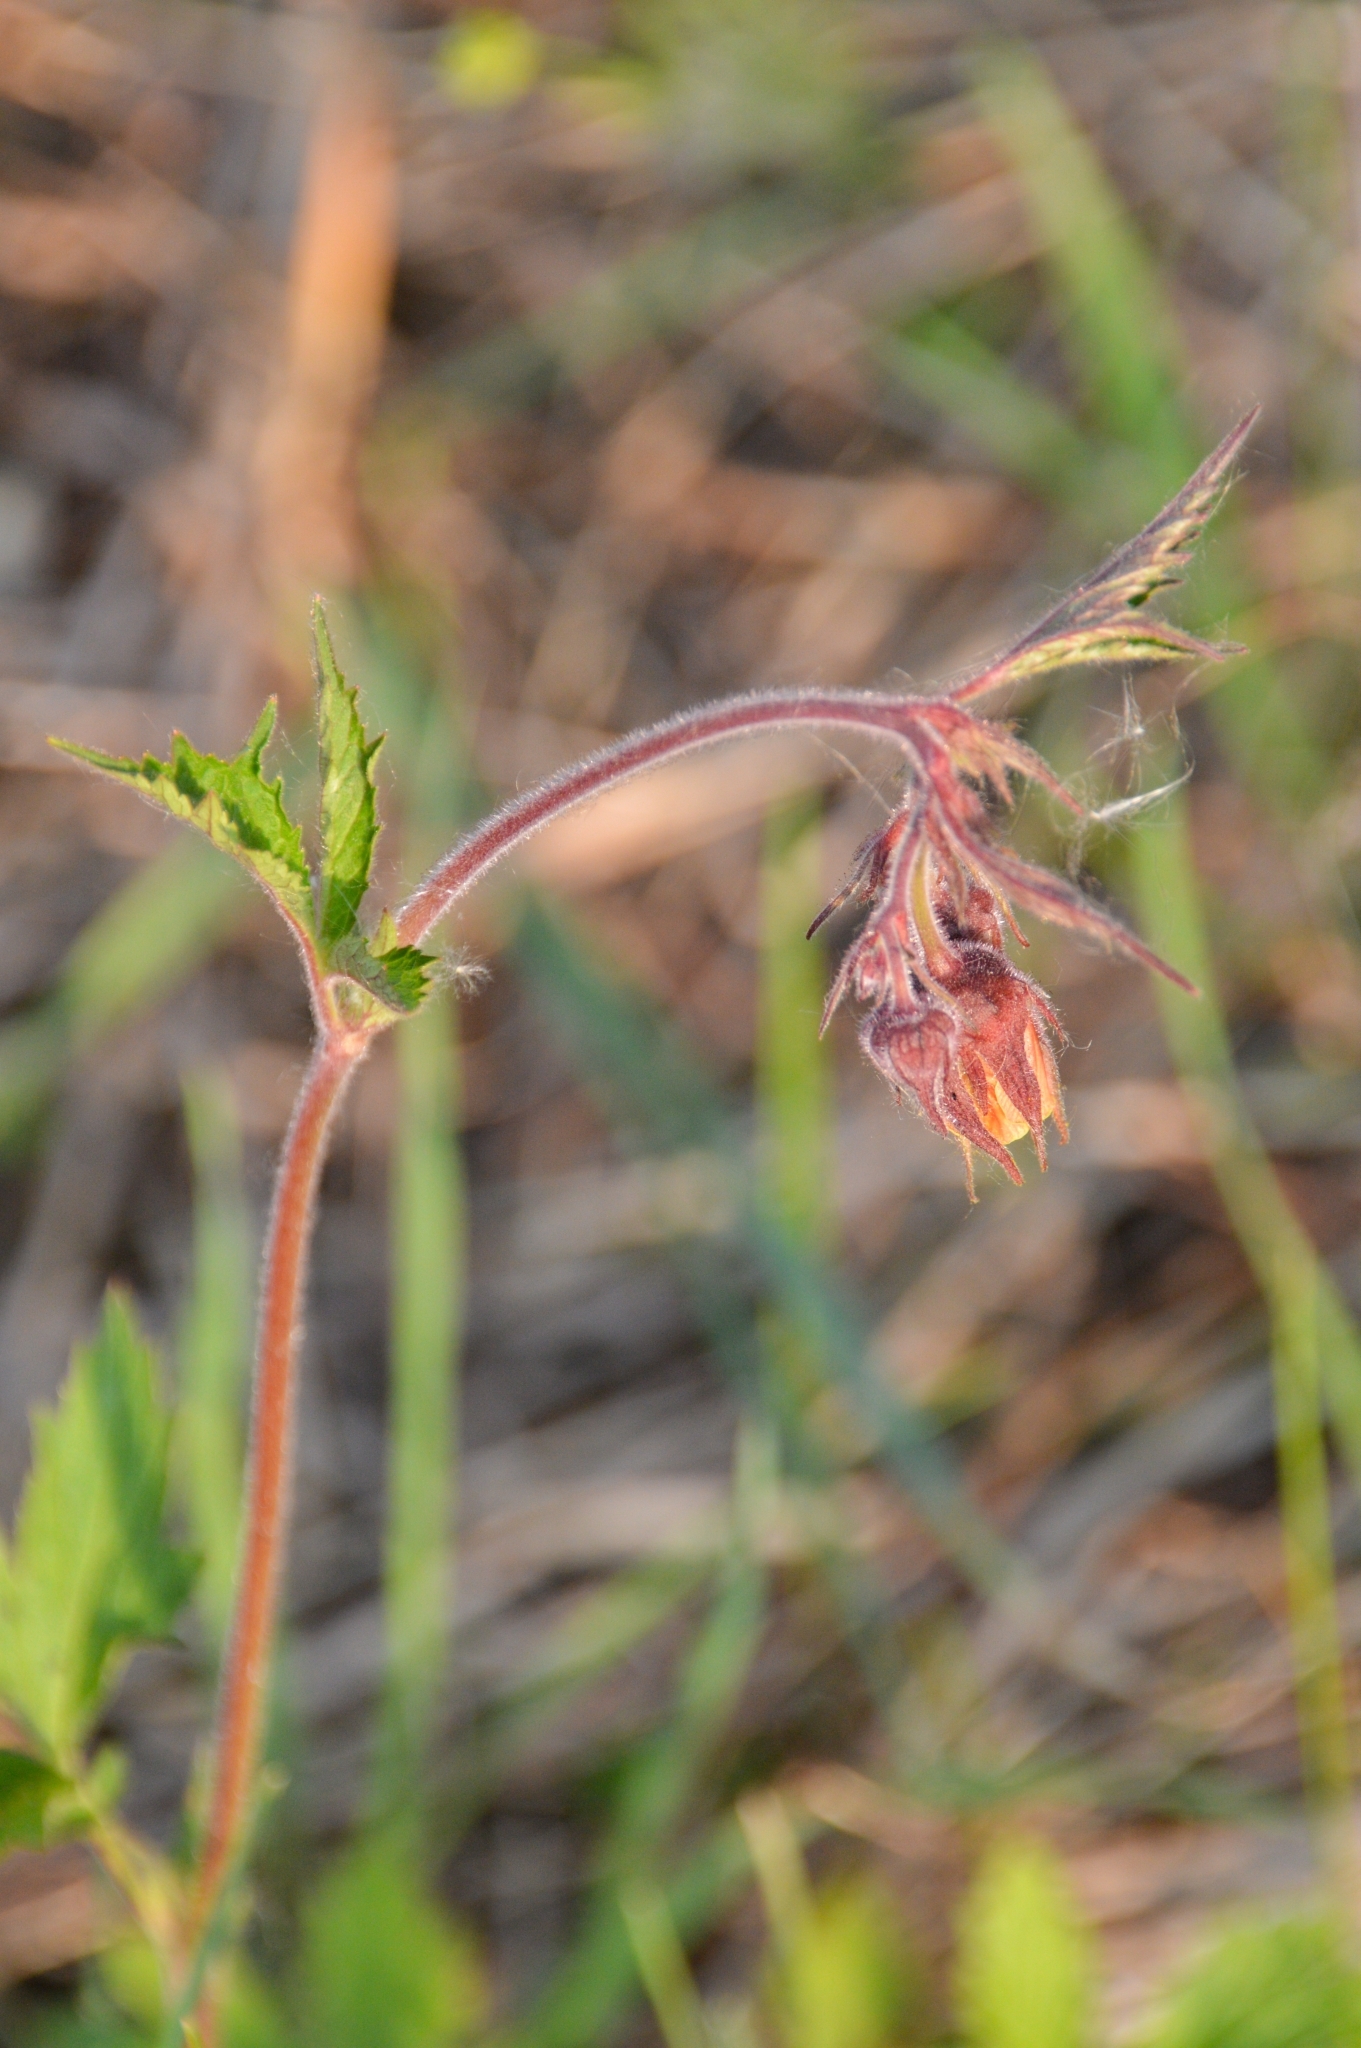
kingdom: Plantae
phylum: Tracheophyta
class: Magnoliopsida
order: Rosales
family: Rosaceae
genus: Geum
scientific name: Geum rivale
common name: Water avens
